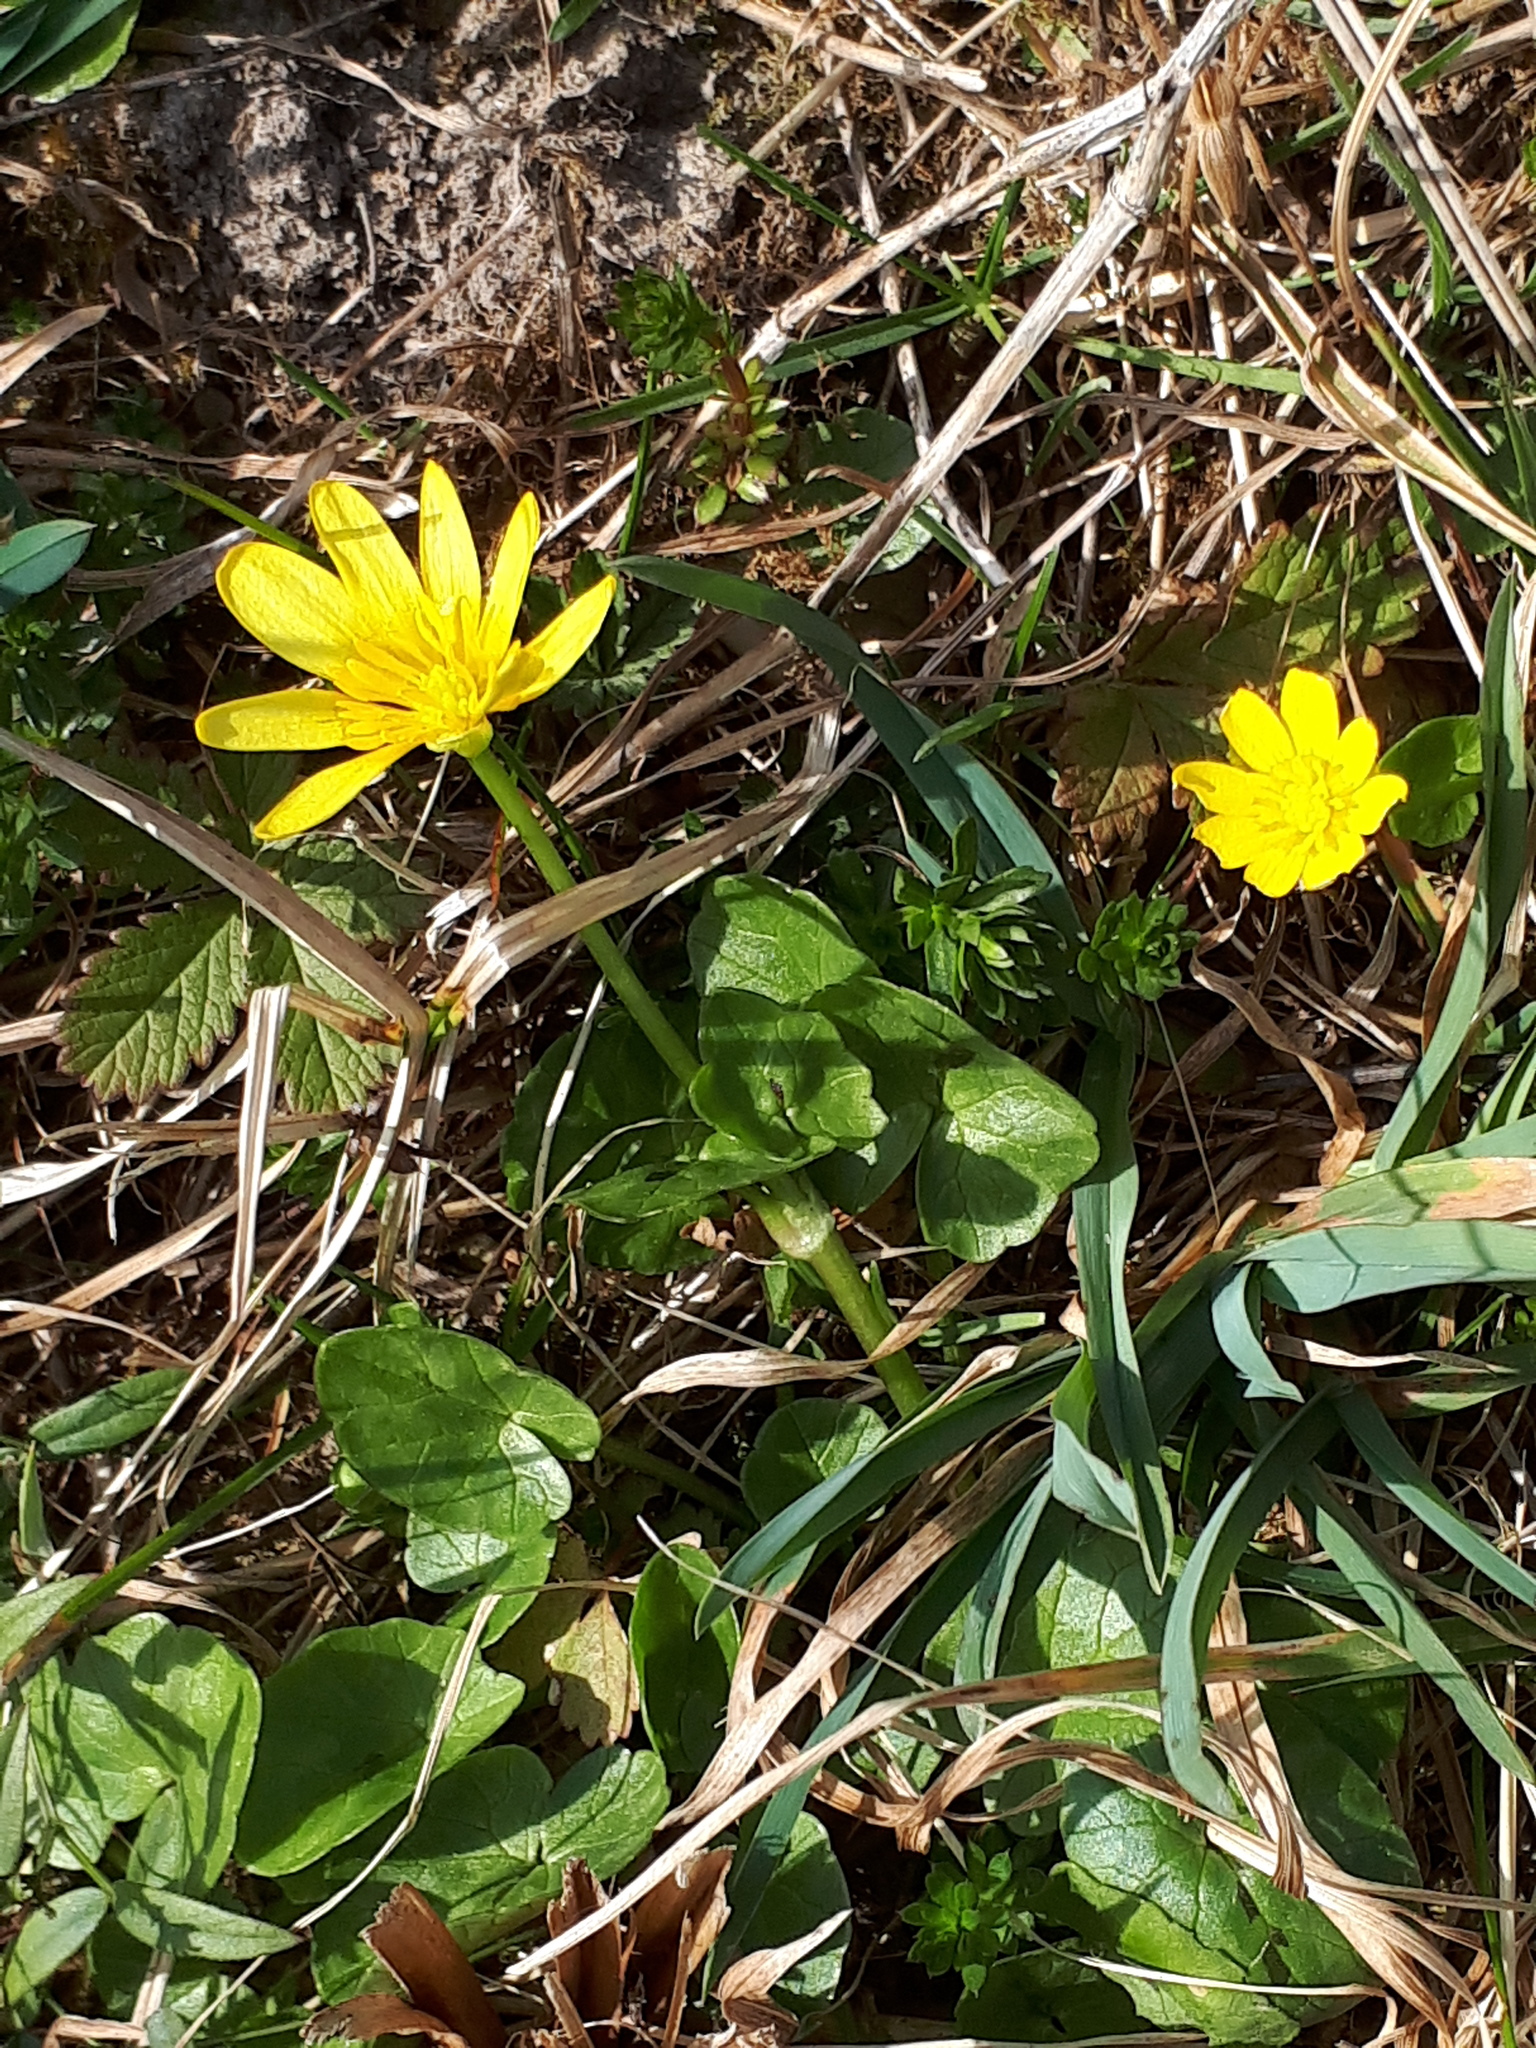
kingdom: Plantae
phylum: Tracheophyta
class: Magnoliopsida
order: Ranunculales
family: Ranunculaceae
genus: Ficaria
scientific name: Ficaria verna
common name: Lesser celandine
